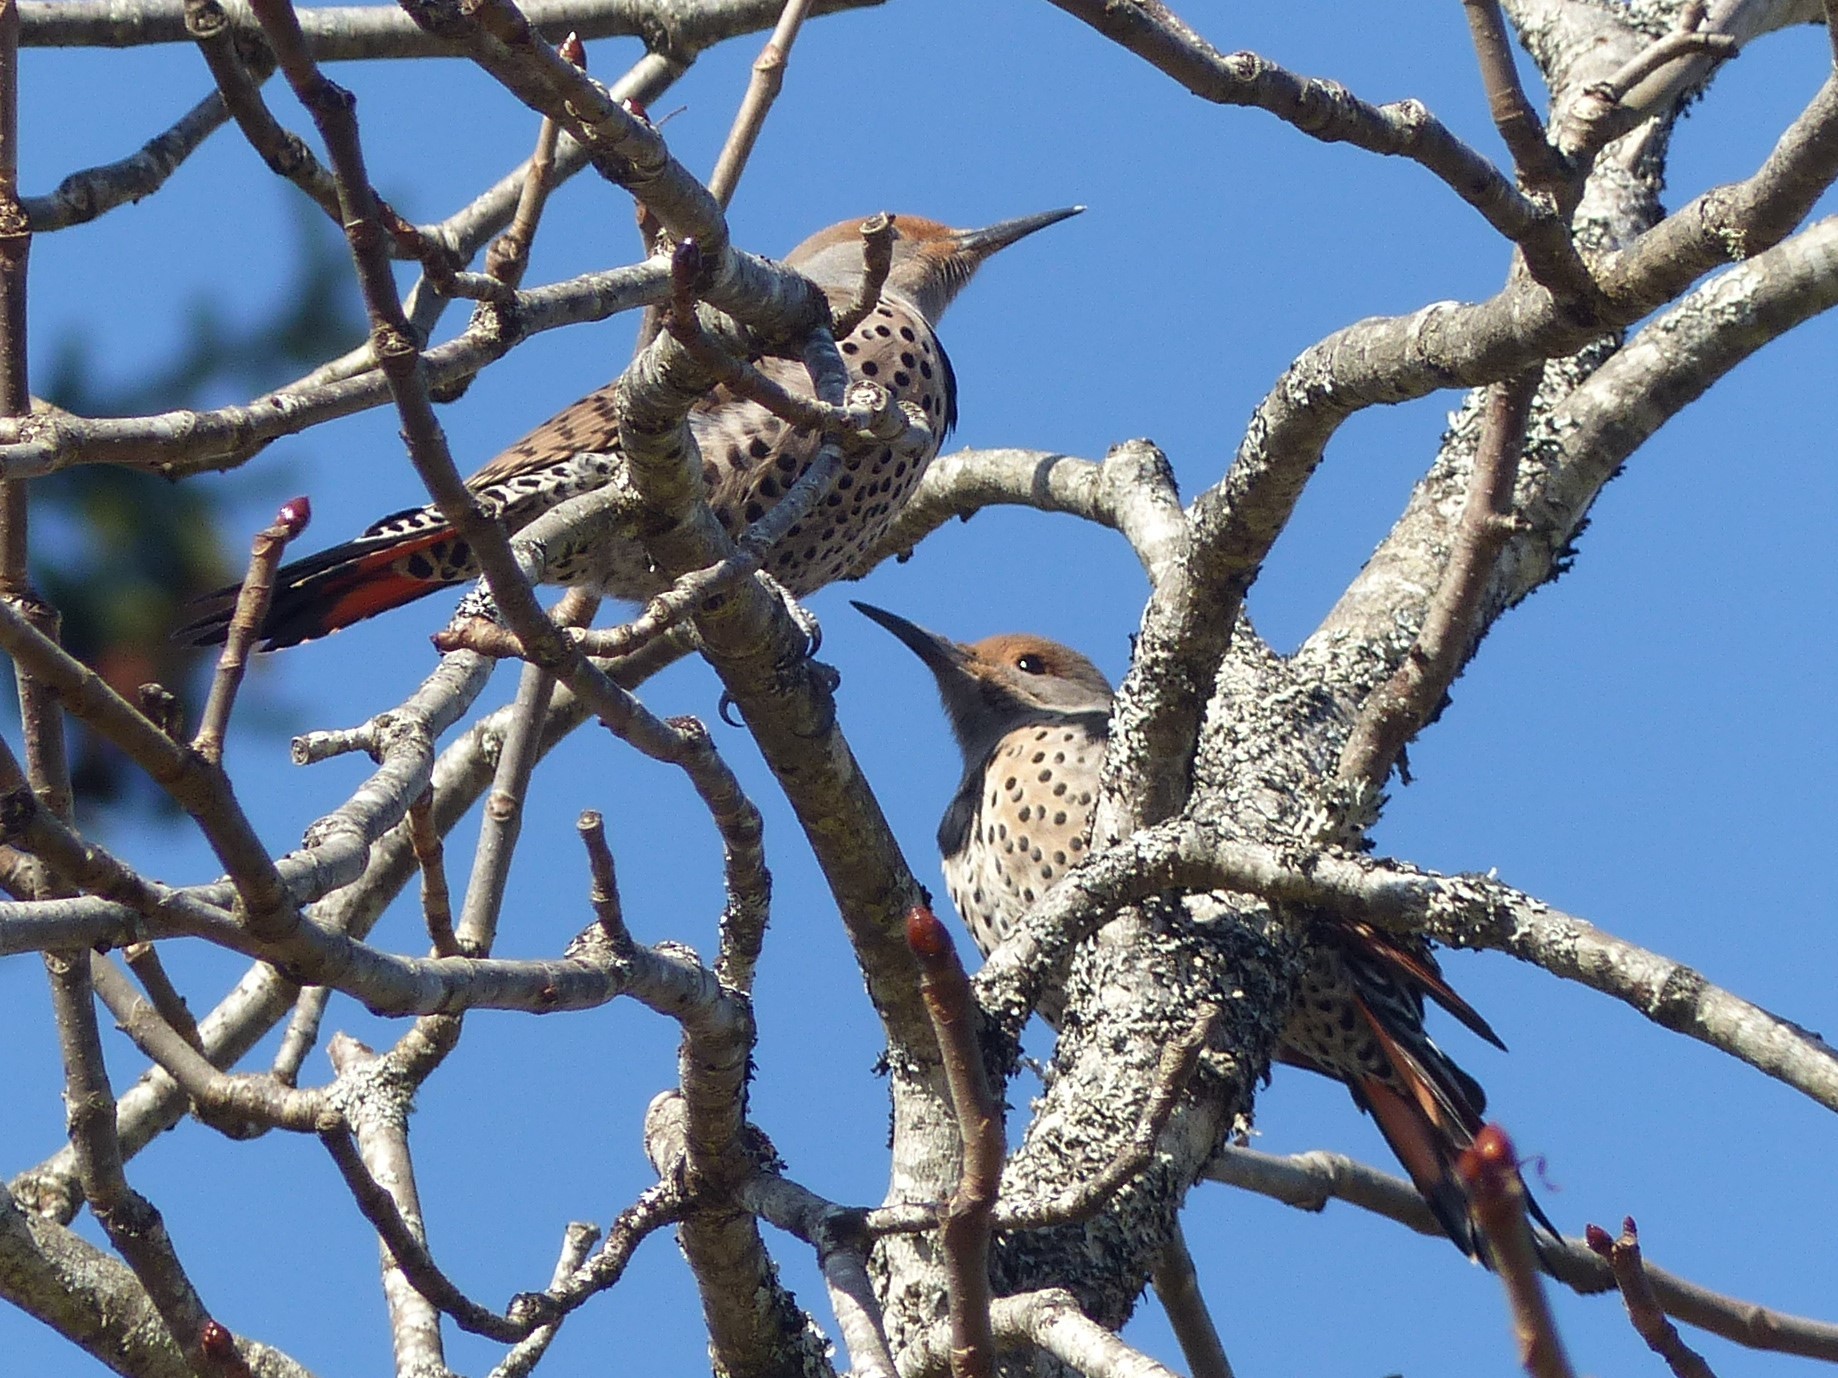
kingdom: Animalia
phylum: Chordata
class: Aves
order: Piciformes
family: Picidae
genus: Colaptes
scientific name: Colaptes auratus
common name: Northern flicker
